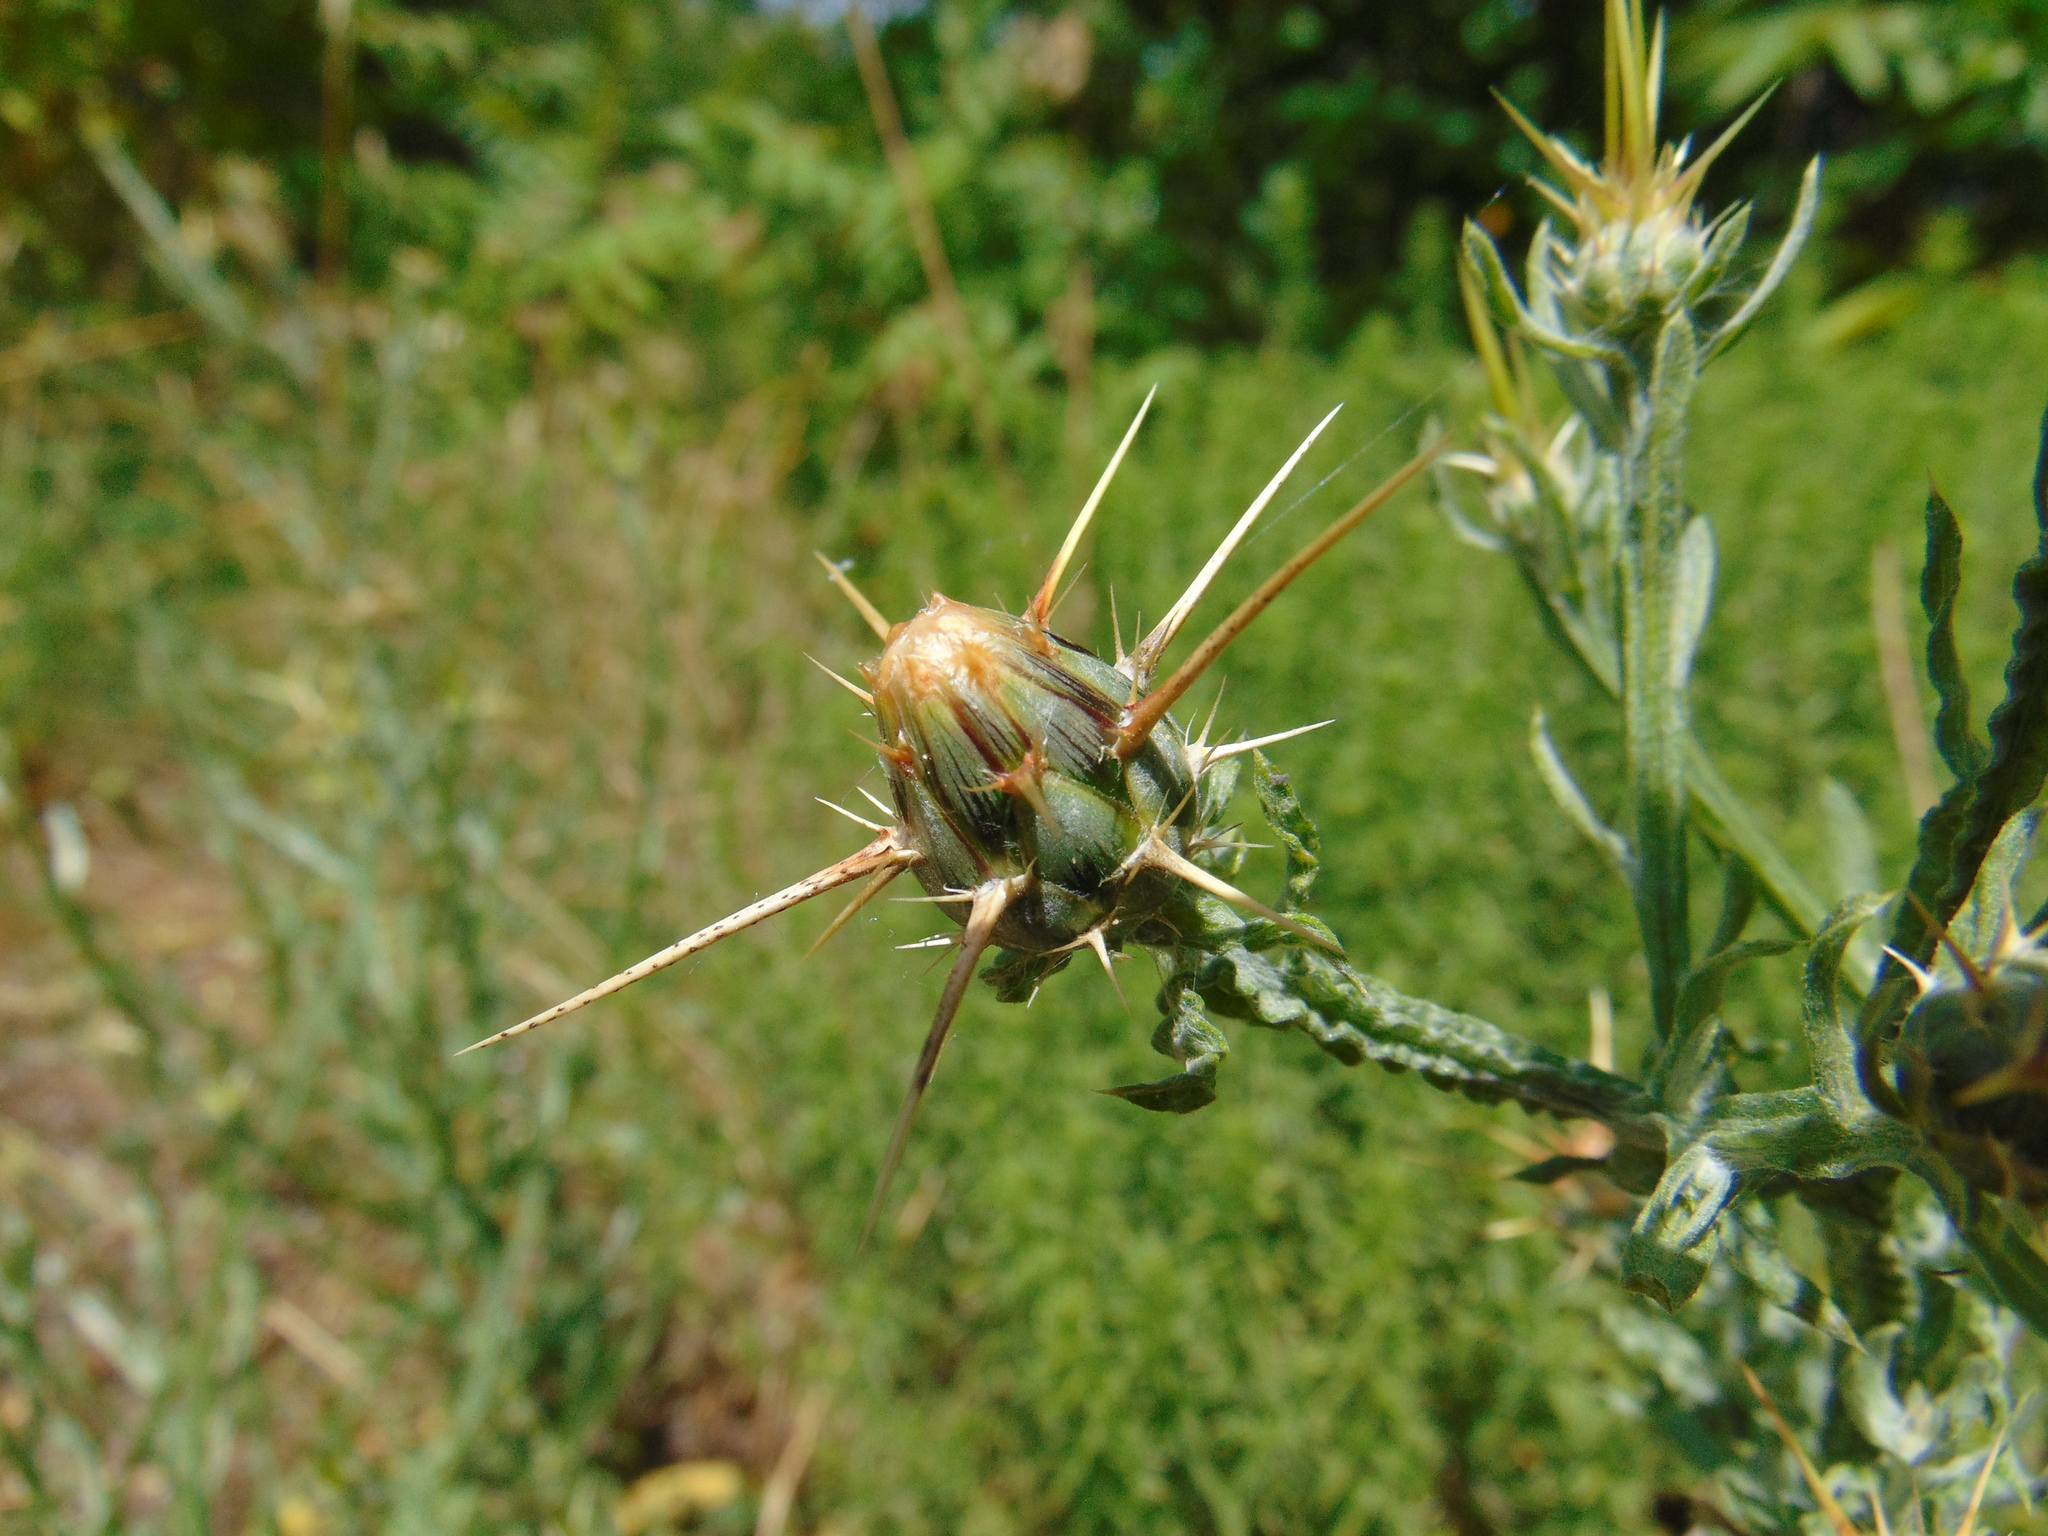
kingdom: Plantae
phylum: Tracheophyta
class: Magnoliopsida
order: Asterales
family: Asteraceae
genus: Centaurea
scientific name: Centaurea solstitialis
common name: Yellow star-thistle
